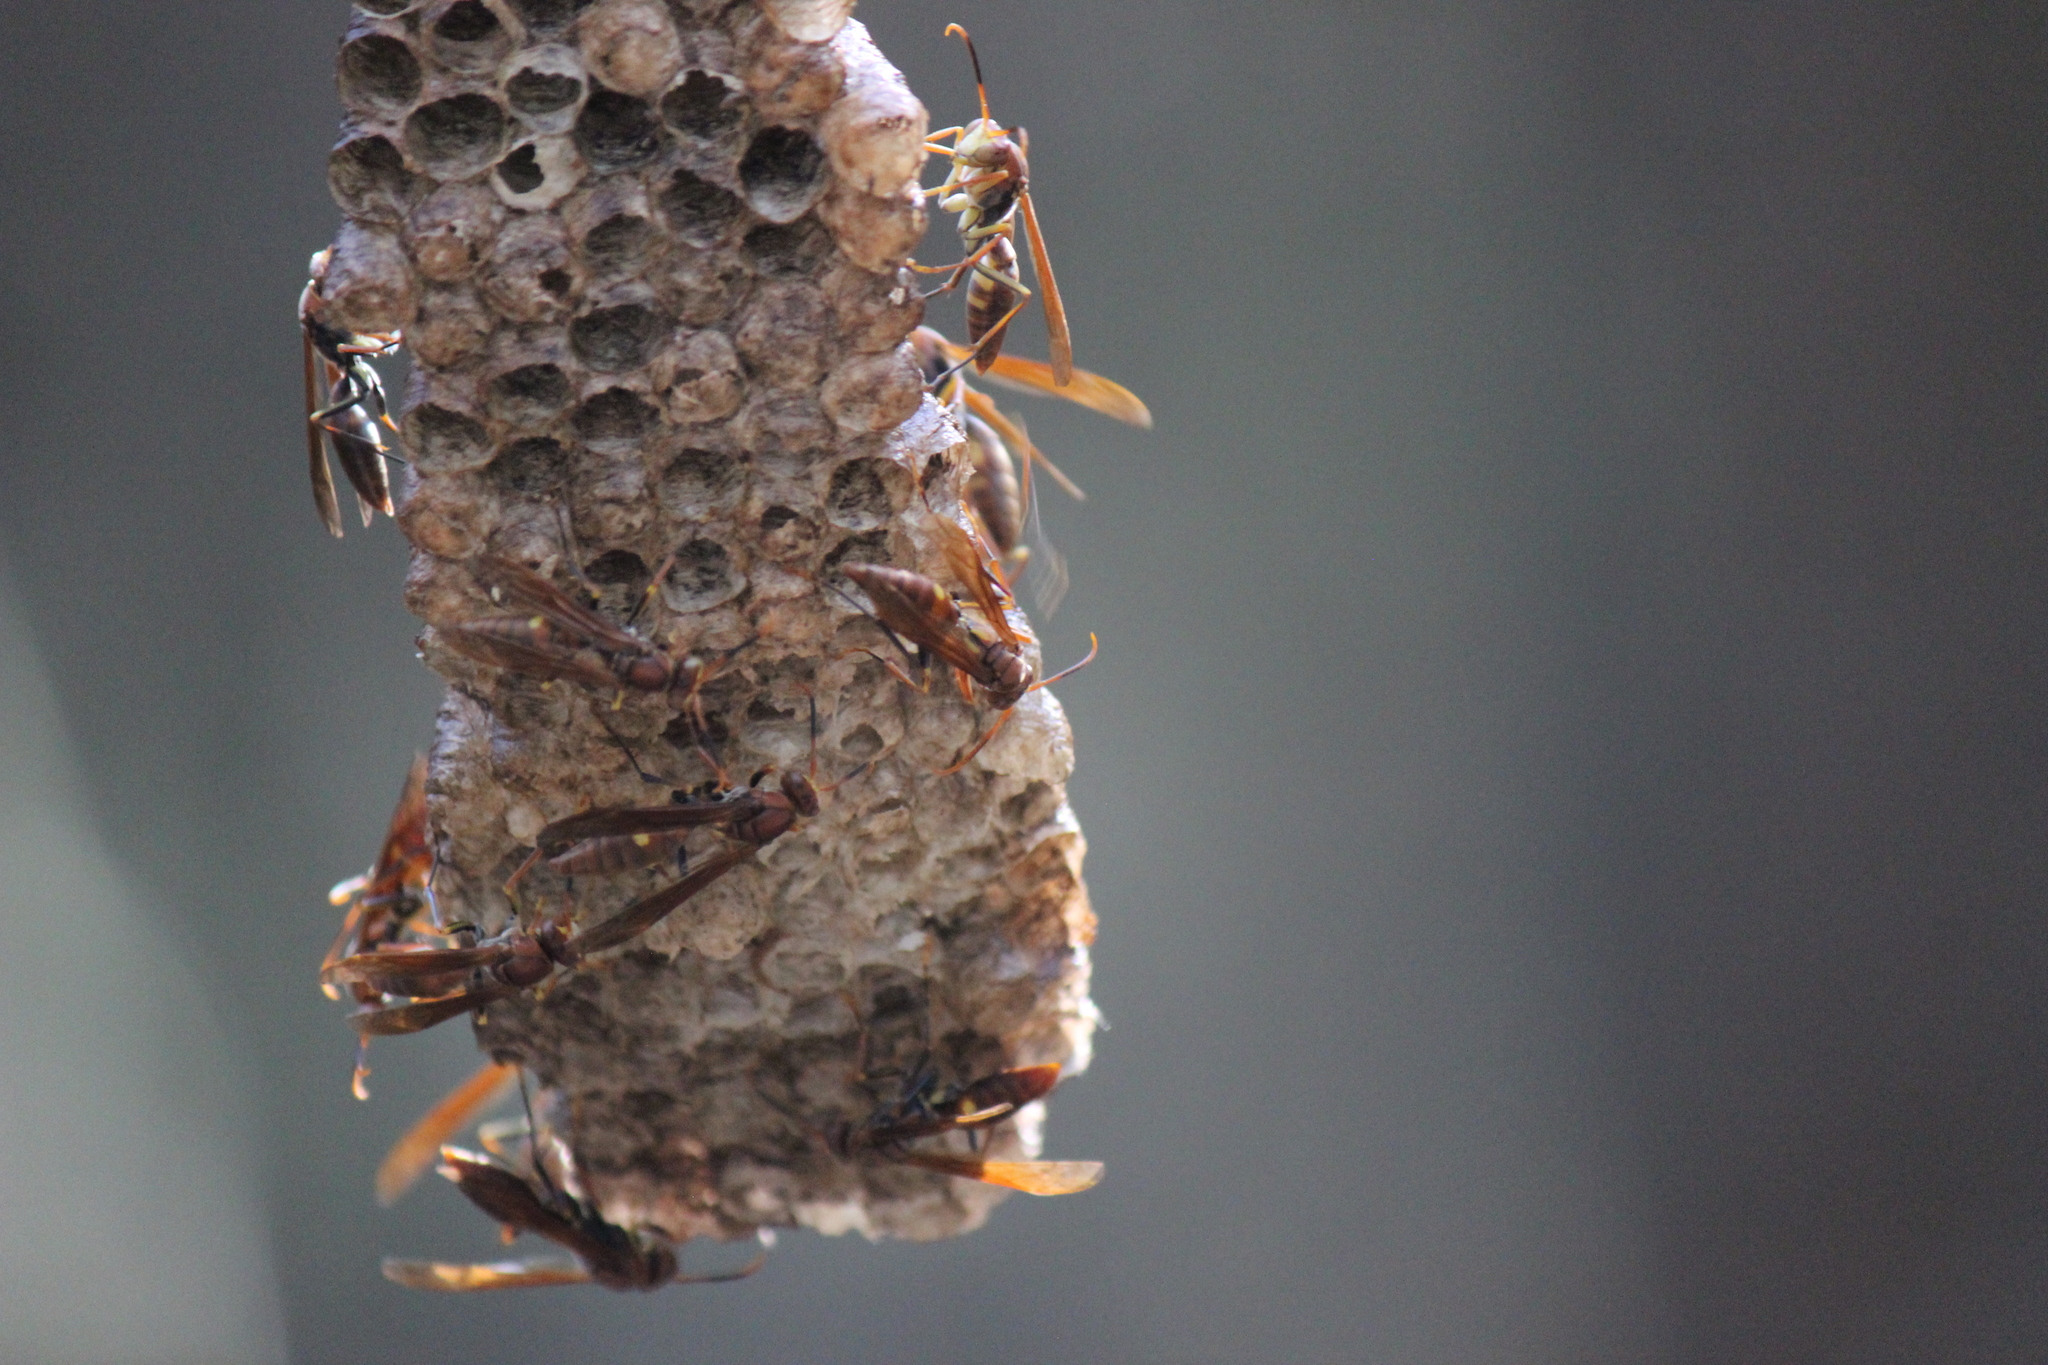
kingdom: Animalia
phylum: Arthropoda
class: Insecta
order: Hymenoptera
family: Pompilidae
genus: Aphanilopterus
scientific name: Aphanilopterus
